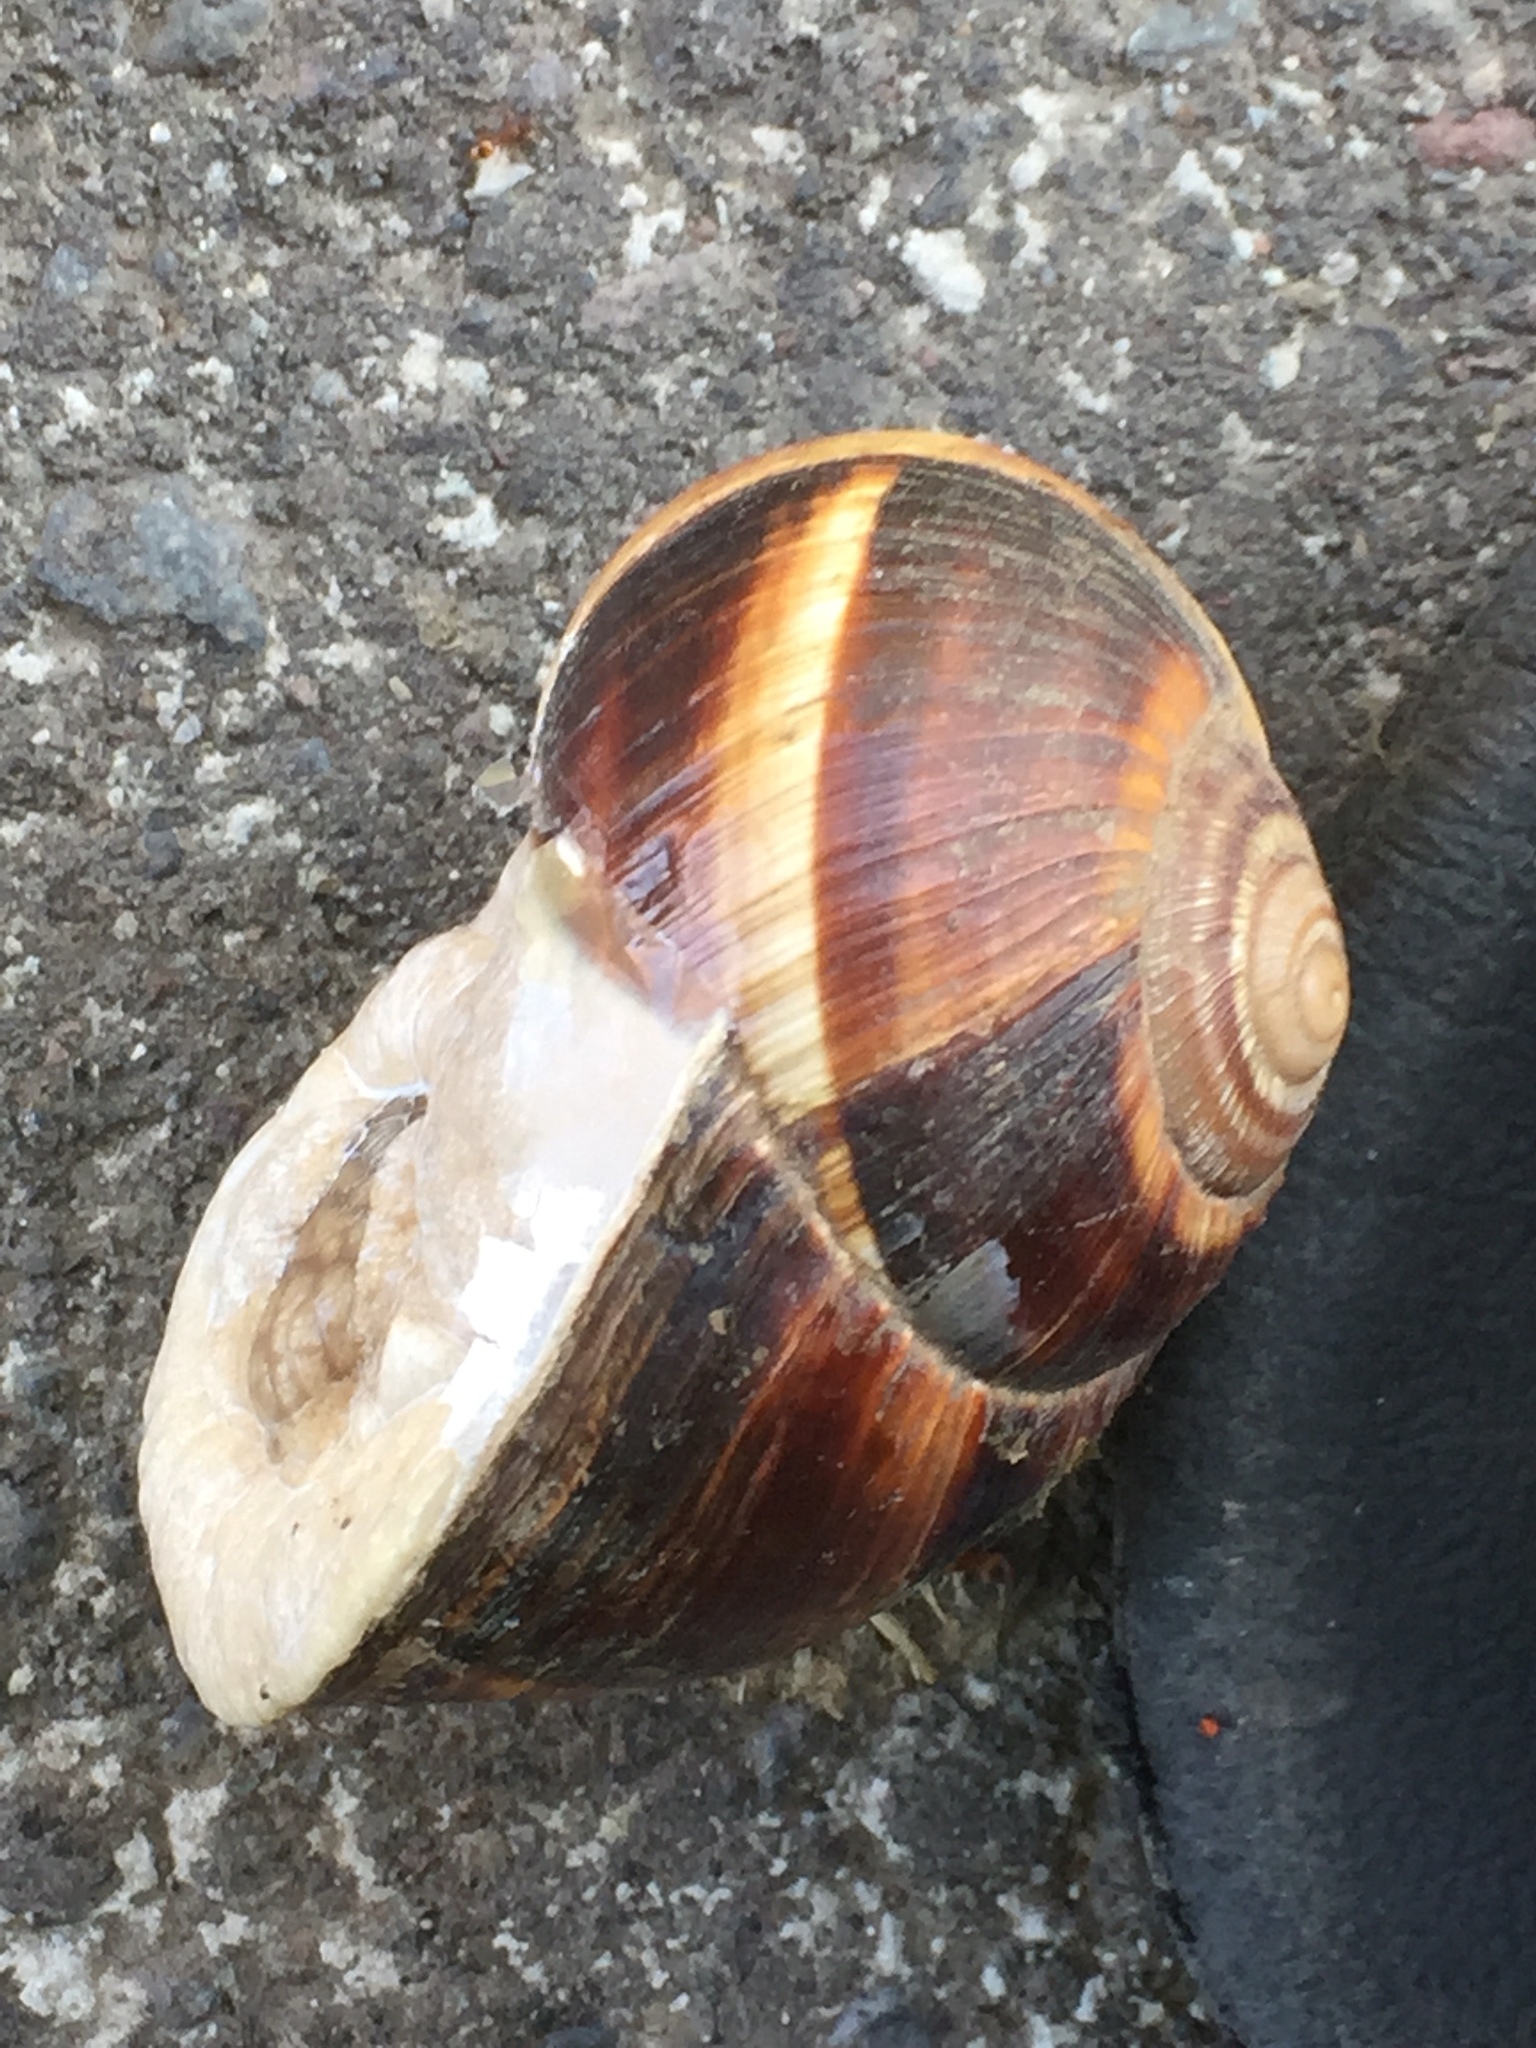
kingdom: Animalia
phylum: Mollusca
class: Gastropoda
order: Stylommatophora
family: Helicidae
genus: Helix
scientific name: Helix lucorum
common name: Turkish snail
